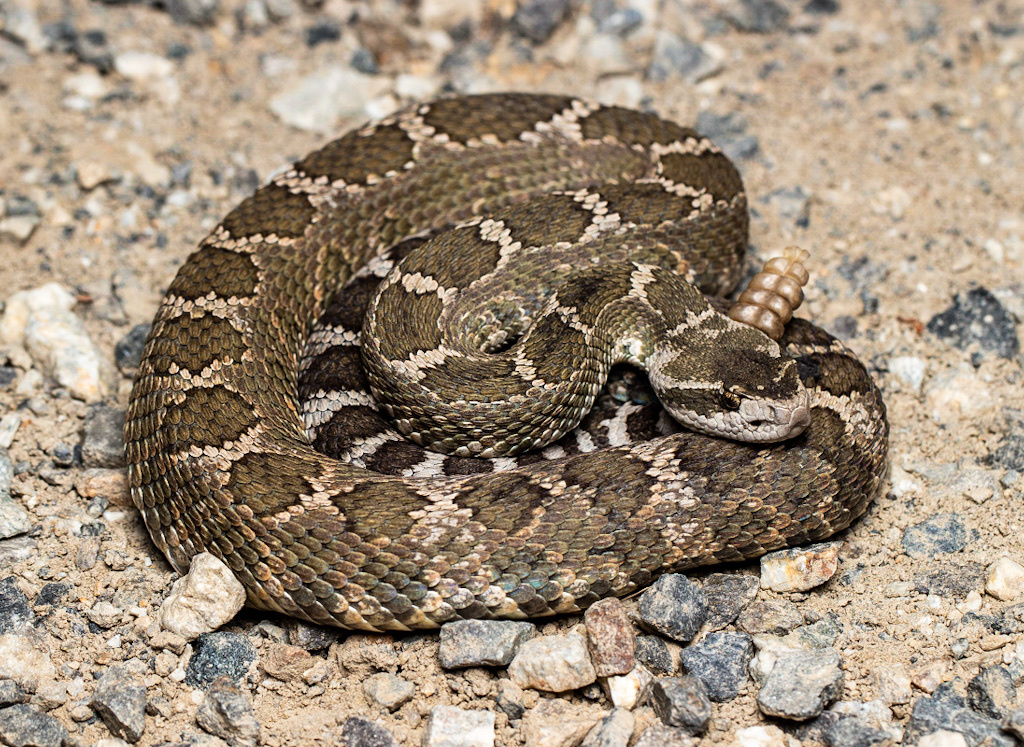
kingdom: Animalia
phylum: Chordata
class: Squamata
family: Viperidae
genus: Crotalus
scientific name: Crotalus oreganus
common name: Abyssus
